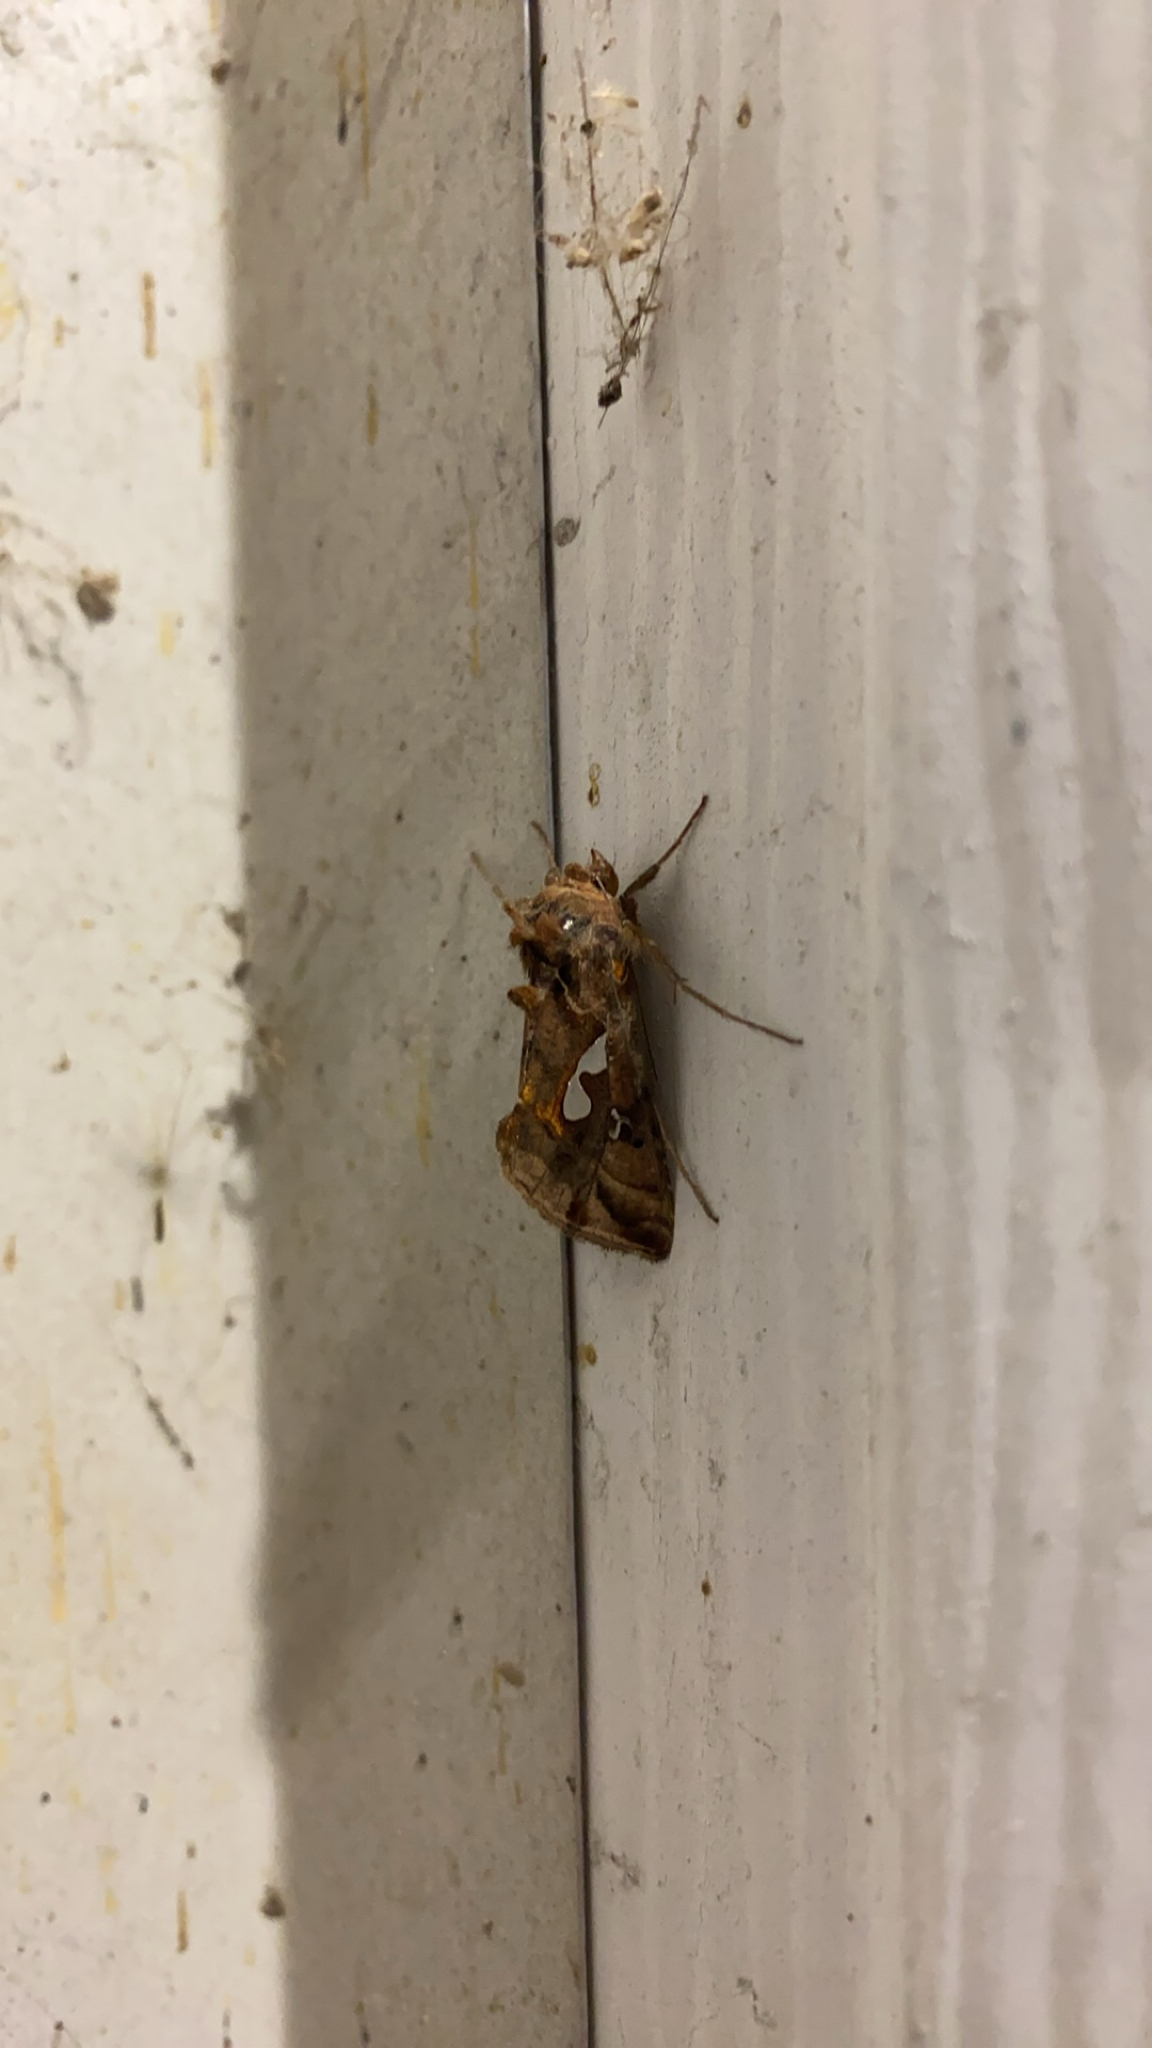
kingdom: Animalia
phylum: Arthropoda
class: Insecta
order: Lepidoptera
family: Noctuidae
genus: Megalographa
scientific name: Megalographa biloba
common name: Cutworm
